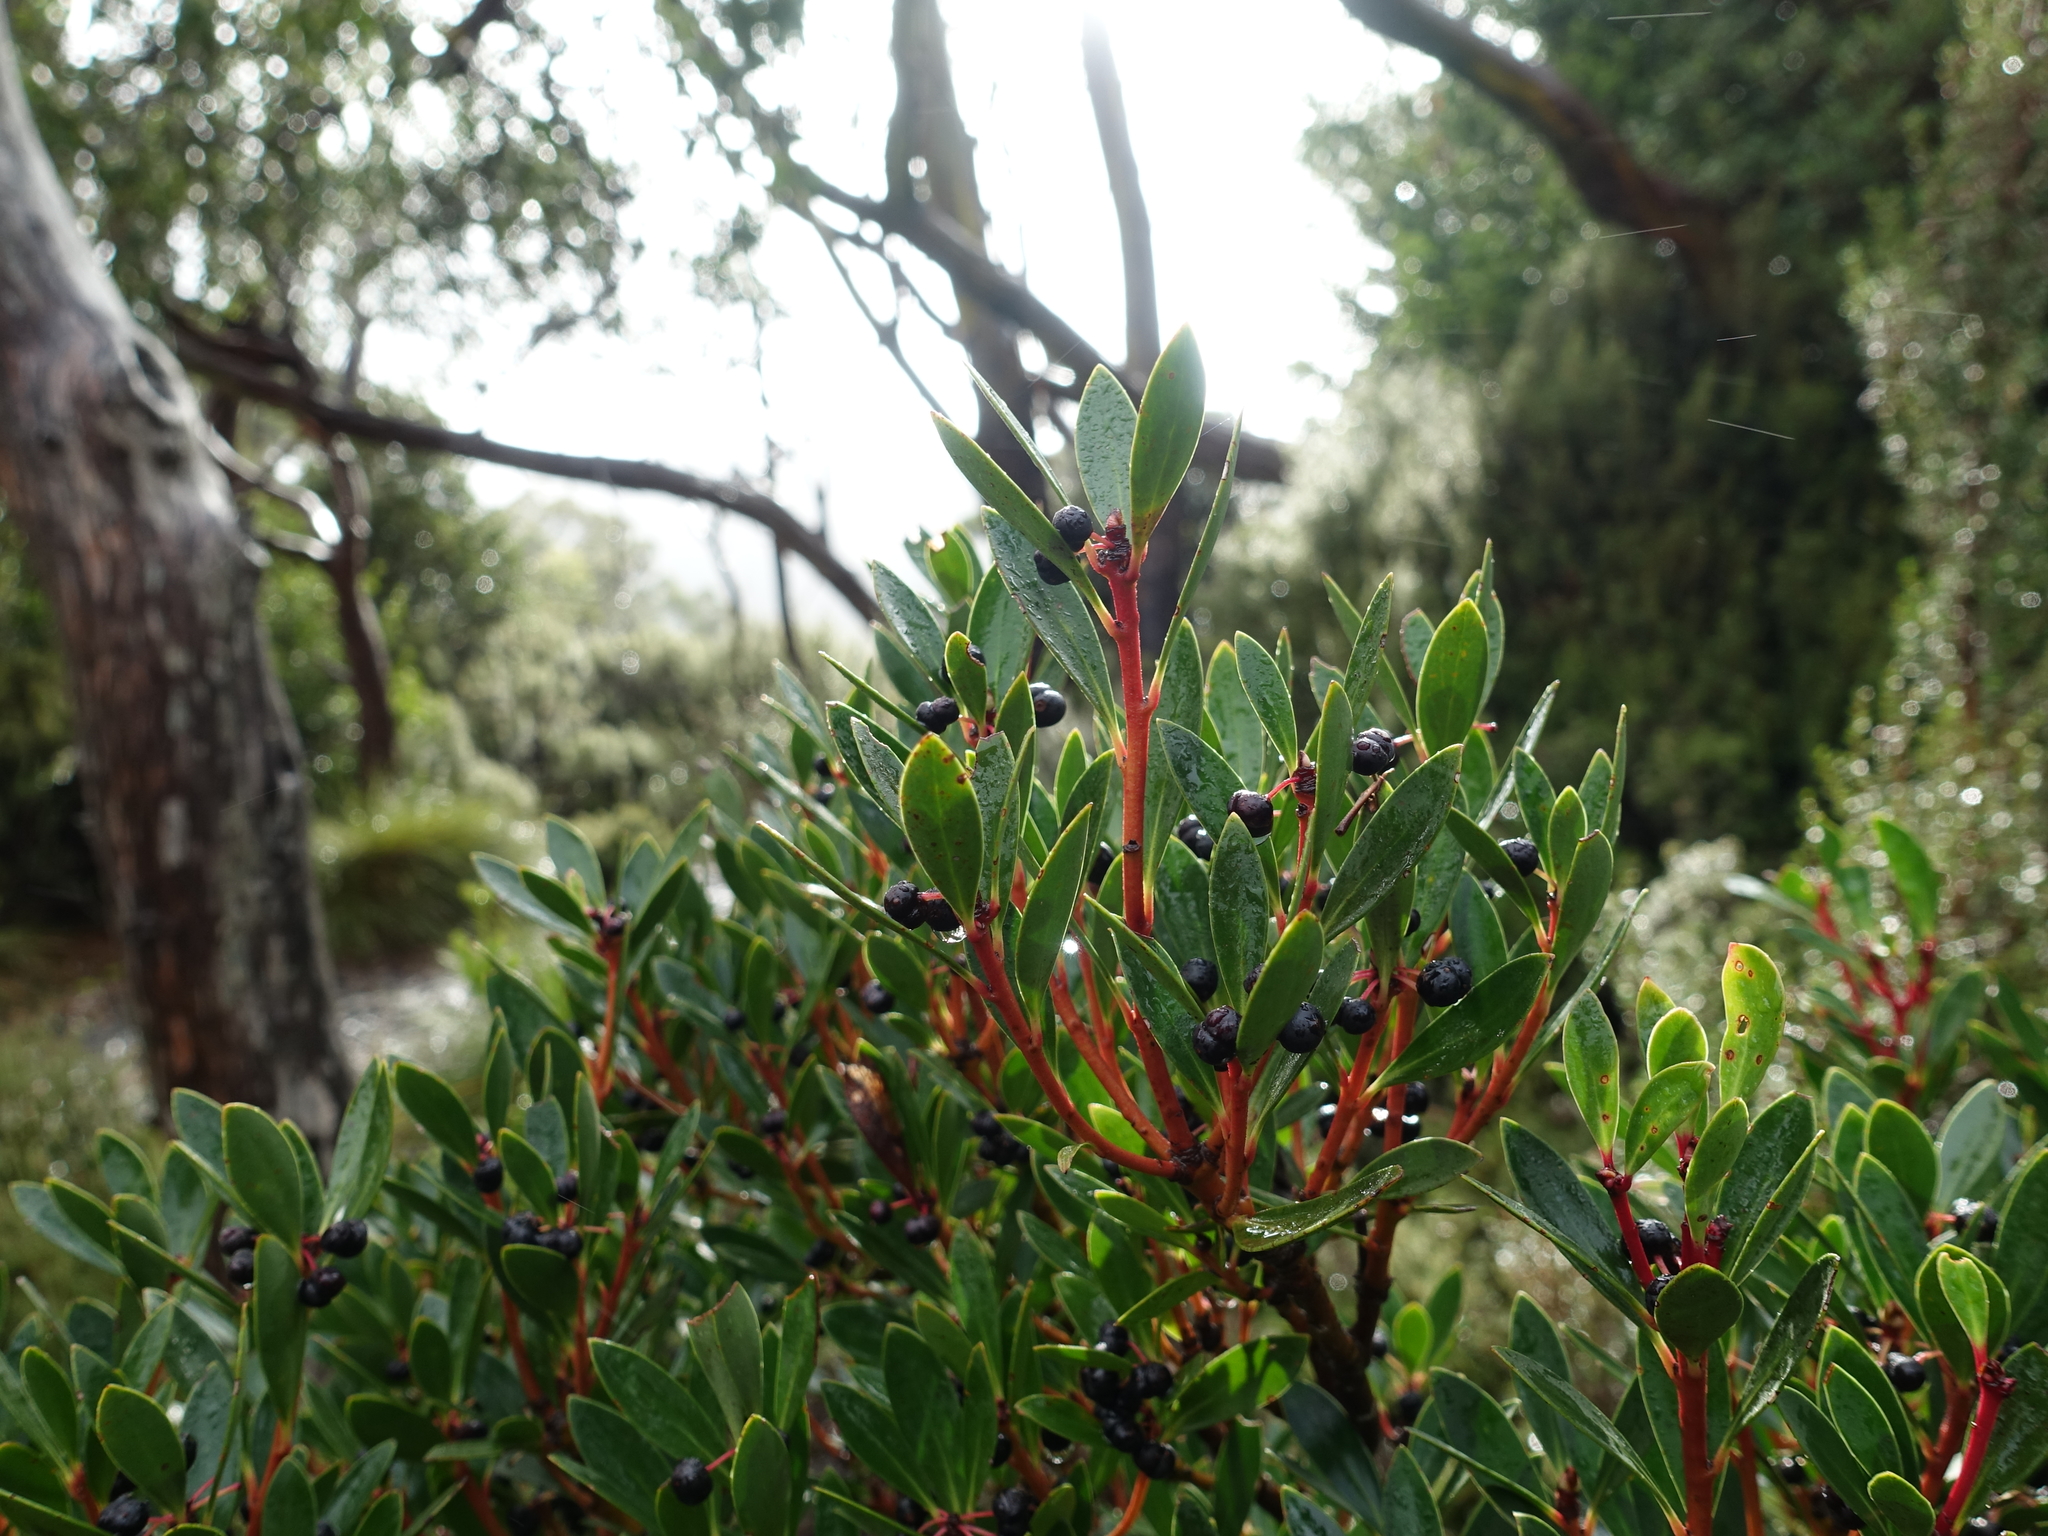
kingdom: Plantae
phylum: Tracheophyta
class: Magnoliopsida
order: Canellales
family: Winteraceae
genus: Drimys
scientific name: Drimys aromatica
